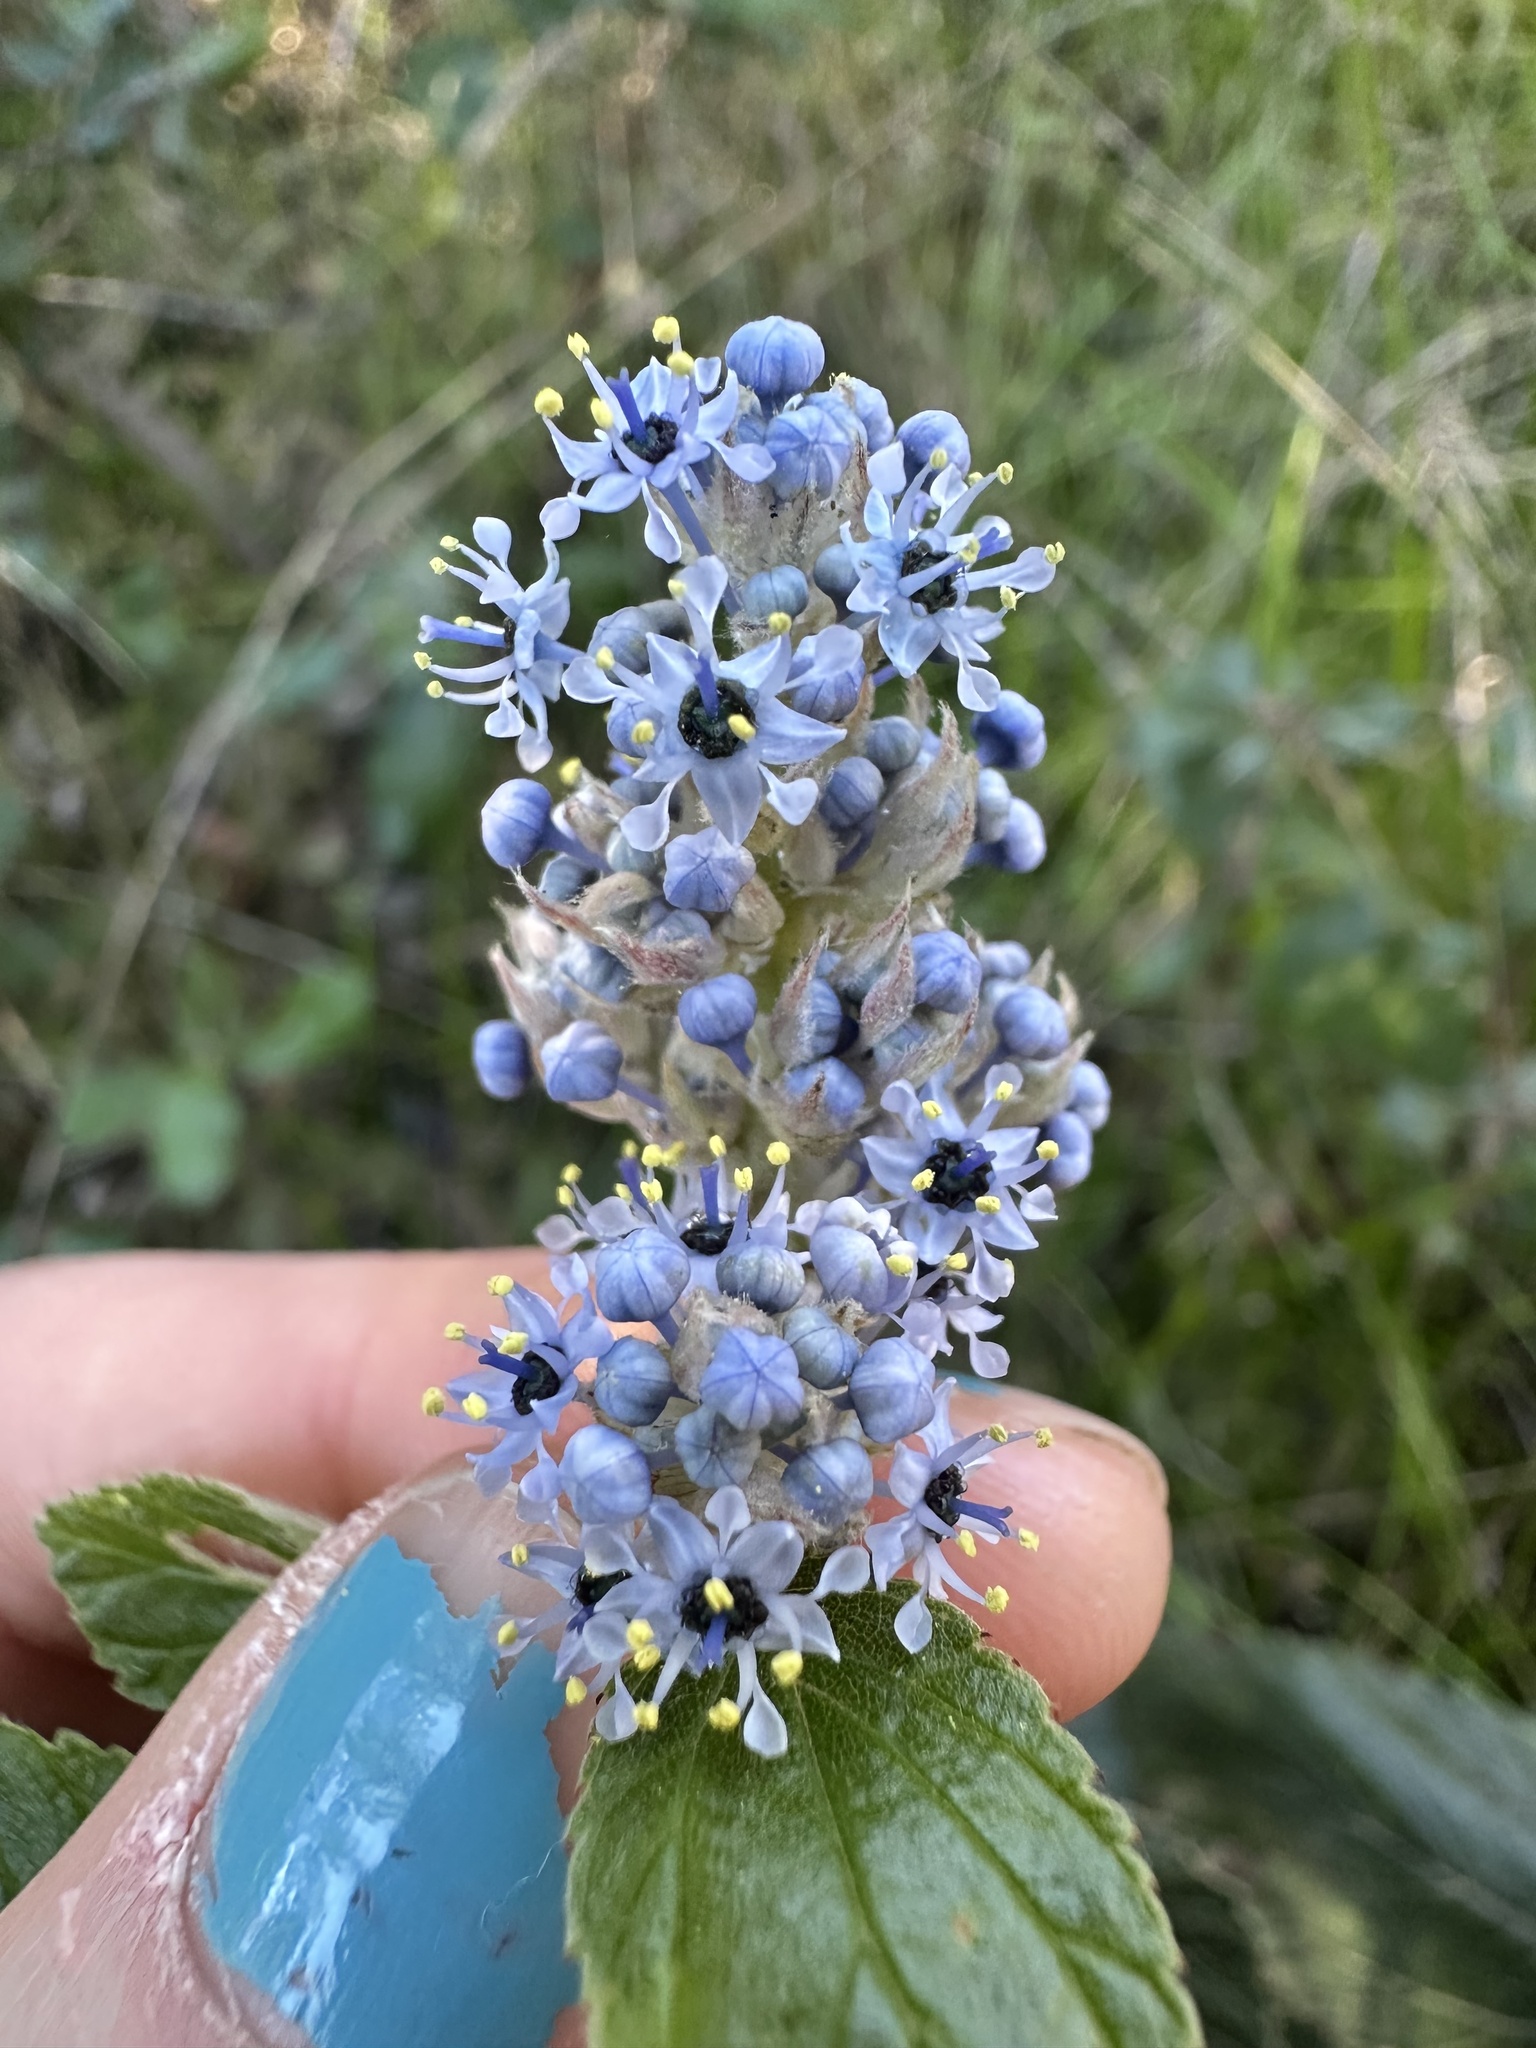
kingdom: Plantae
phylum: Tracheophyta
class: Magnoliopsida
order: Rosales
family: Rhamnaceae
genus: Ceanothus
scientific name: Ceanothus arboreus
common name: Catalina mountain-lilac
